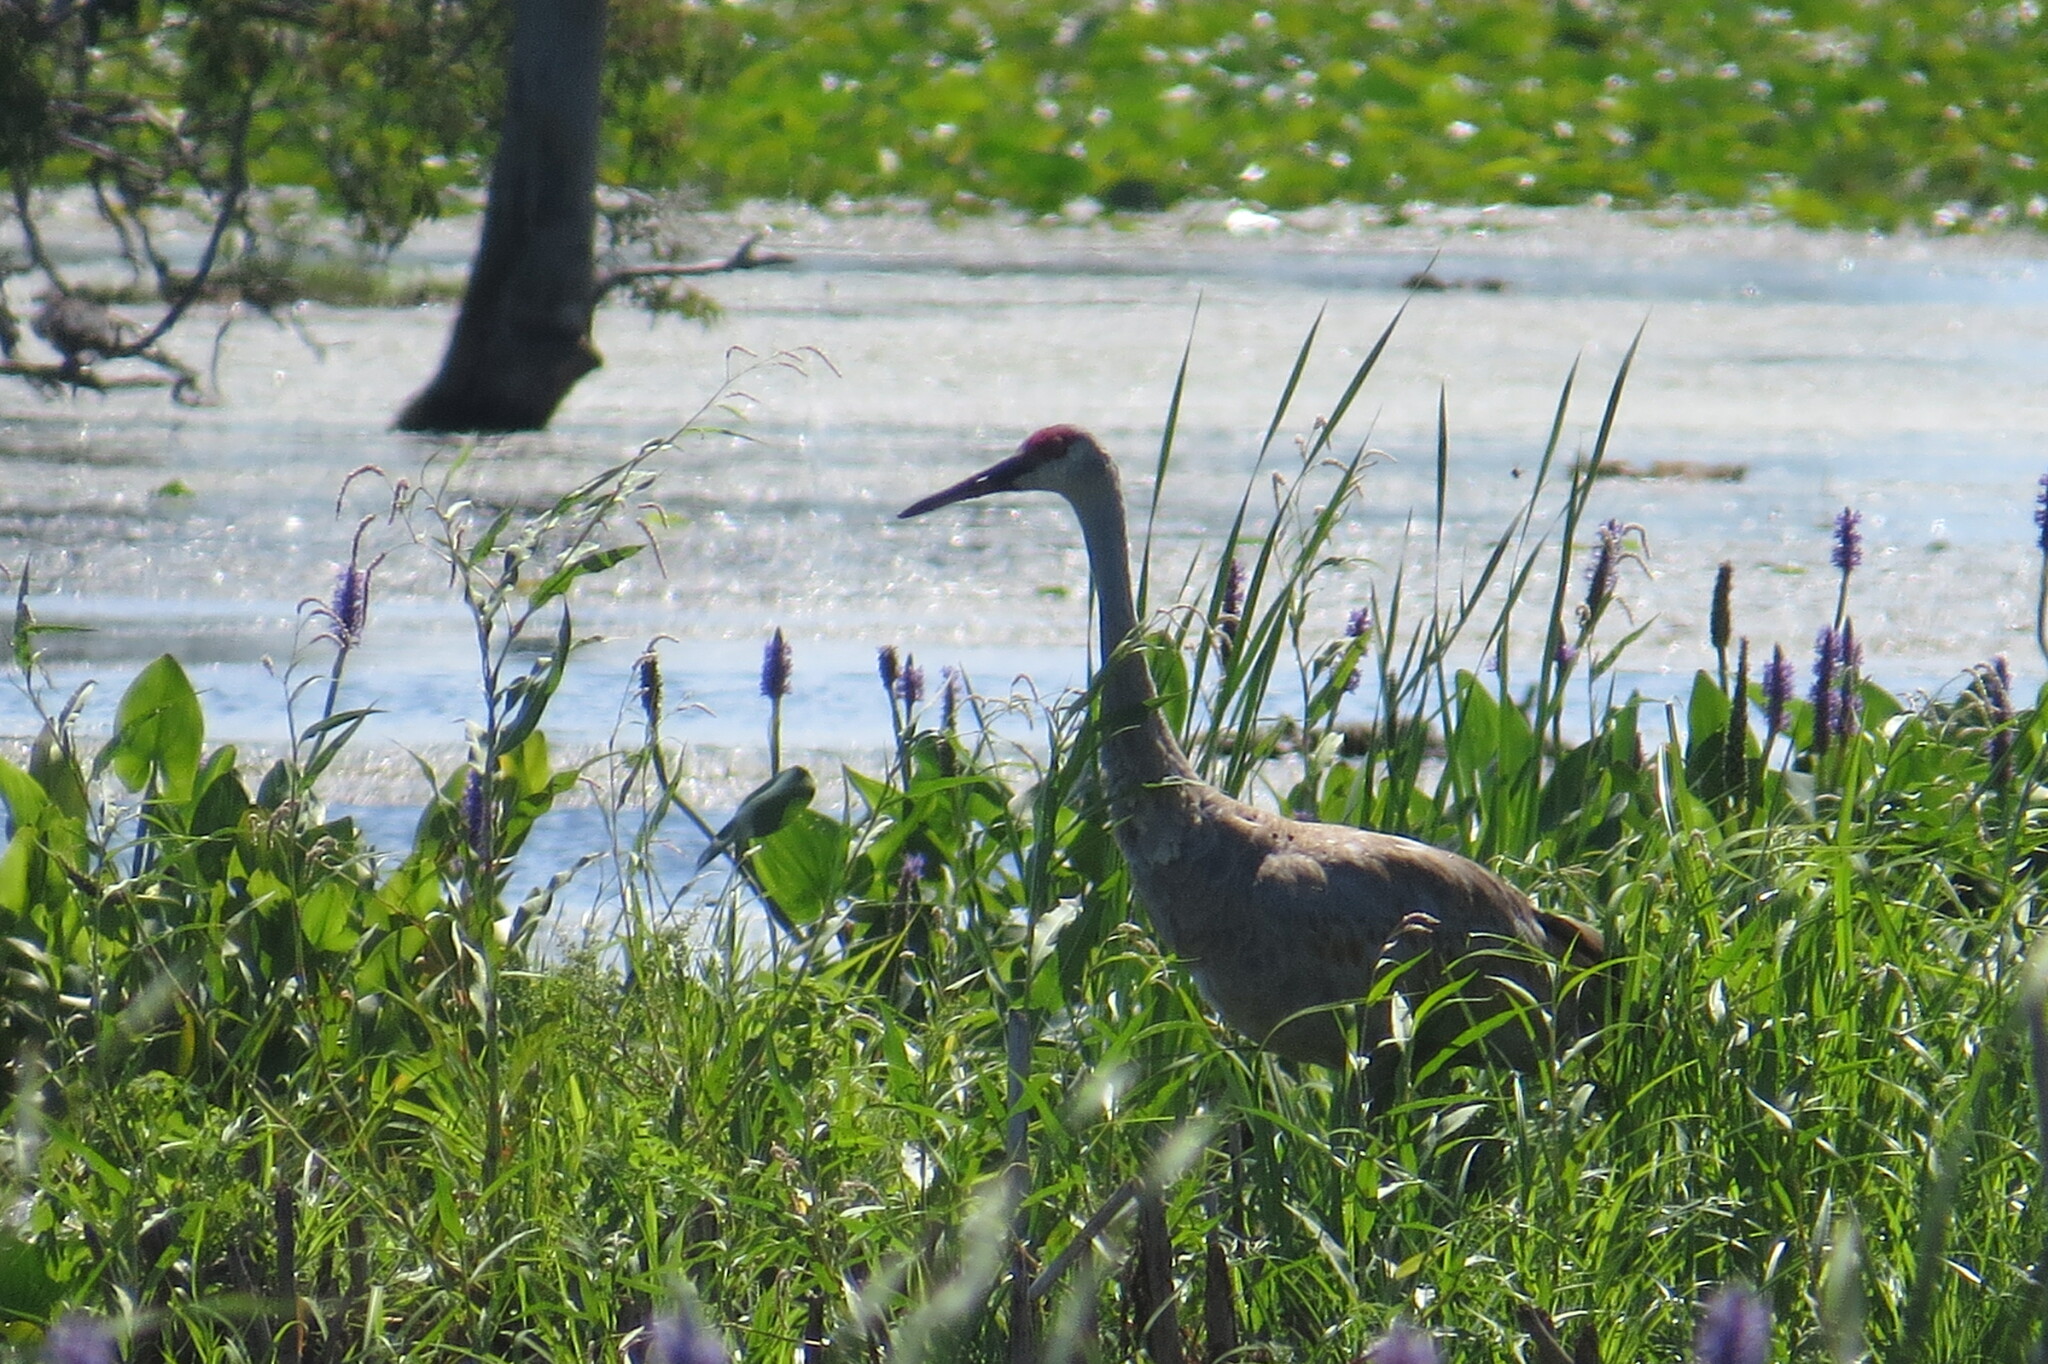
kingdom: Animalia
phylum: Chordata
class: Aves
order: Gruiformes
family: Gruidae
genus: Grus
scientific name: Grus canadensis
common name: Sandhill crane
